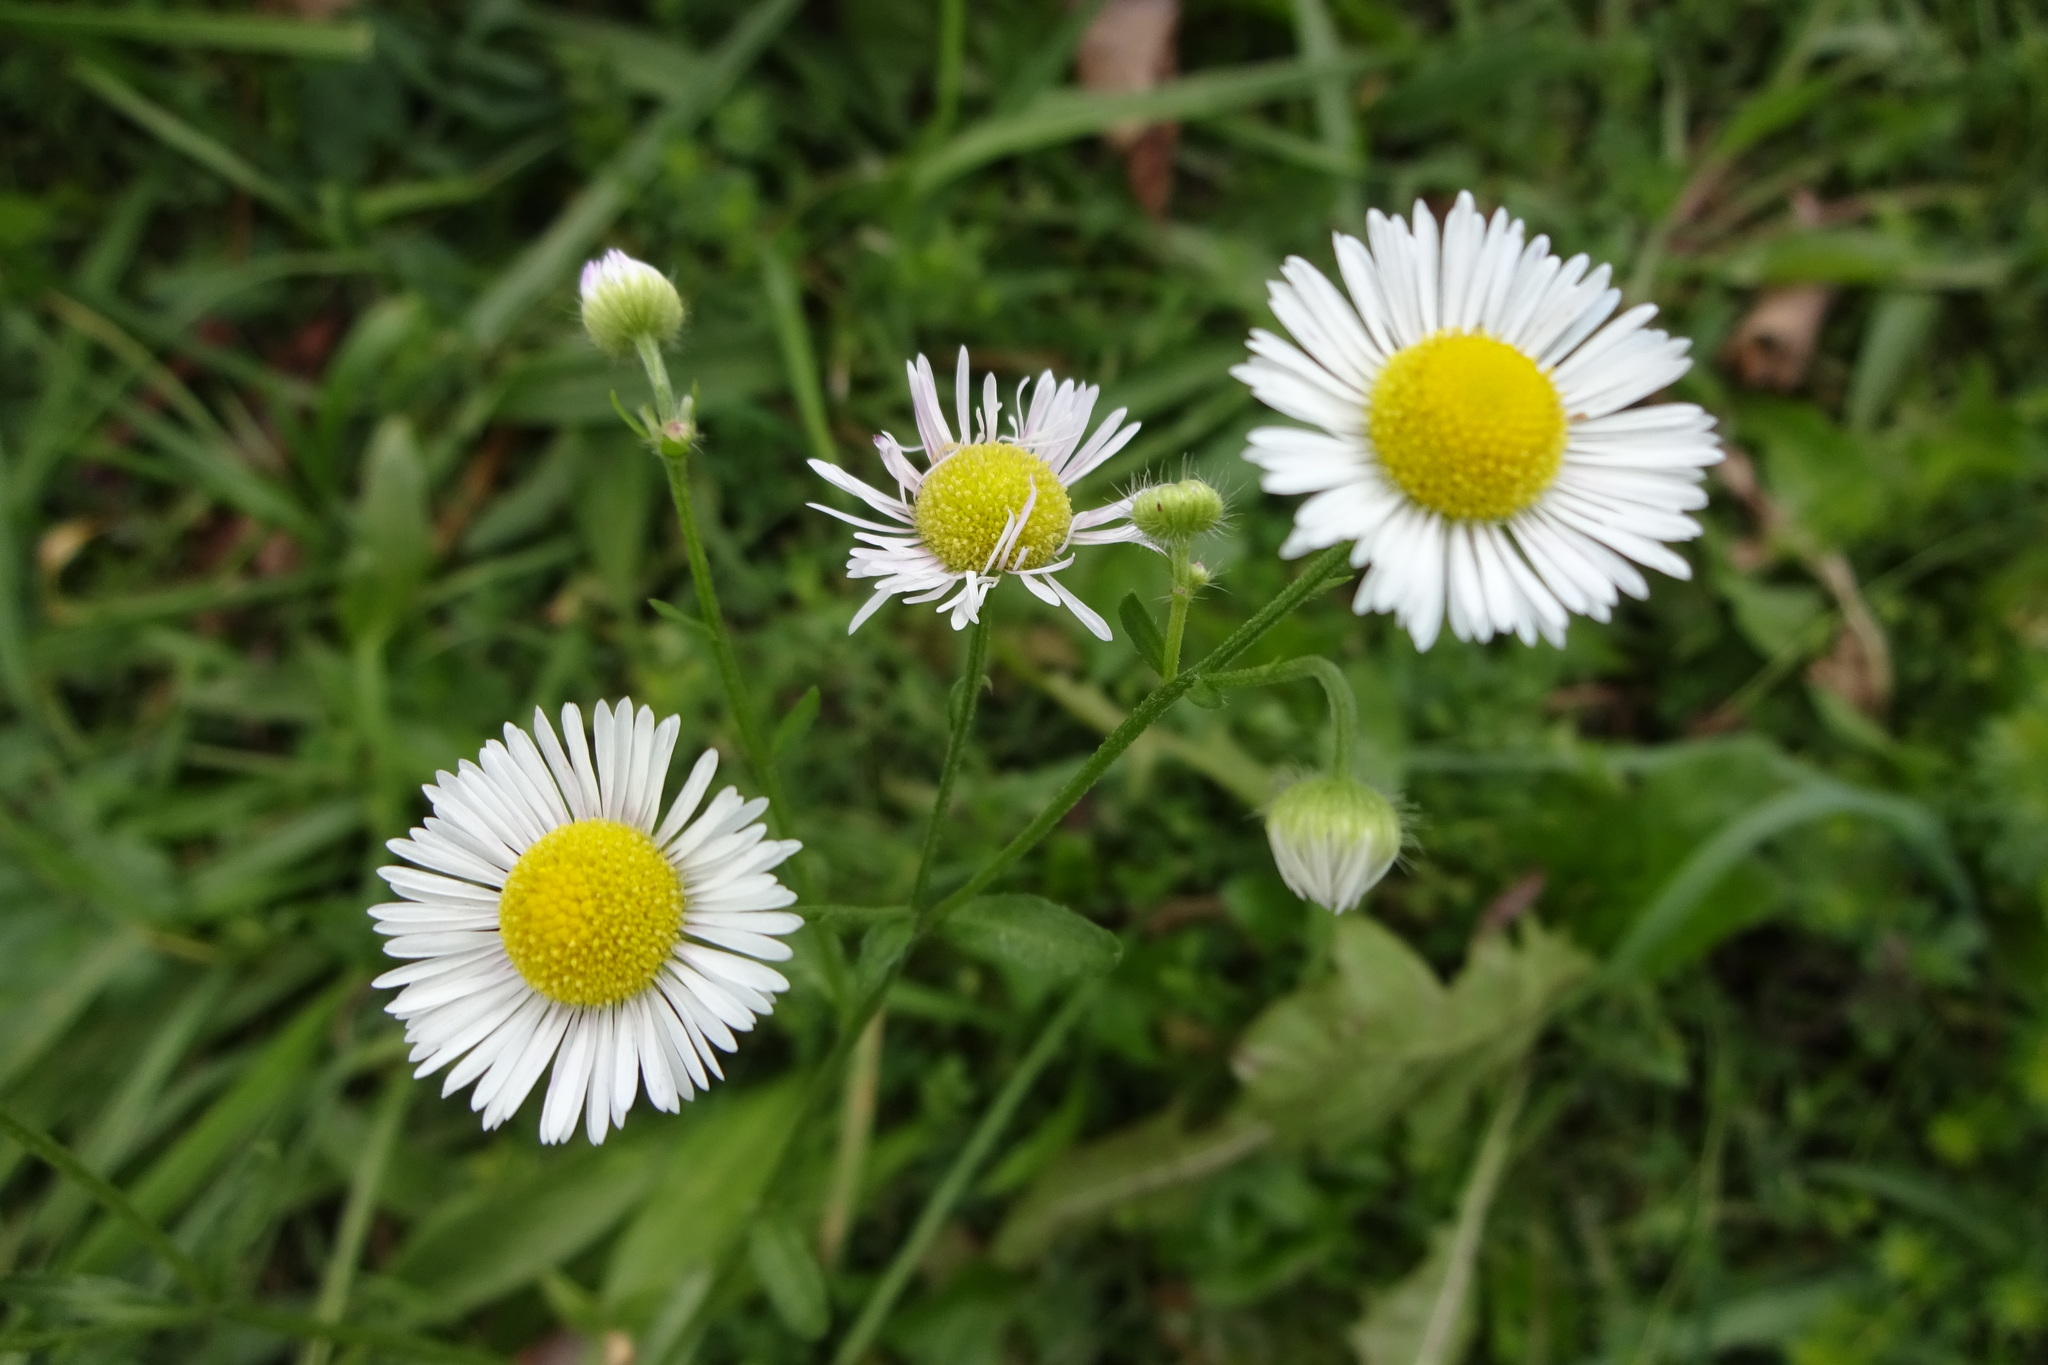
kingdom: Plantae
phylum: Tracheophyta
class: Magnoliopsida
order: Asterales
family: Asteraceae
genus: Erigeron
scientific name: Erigeron strigosus
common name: Common eastern fleabane
